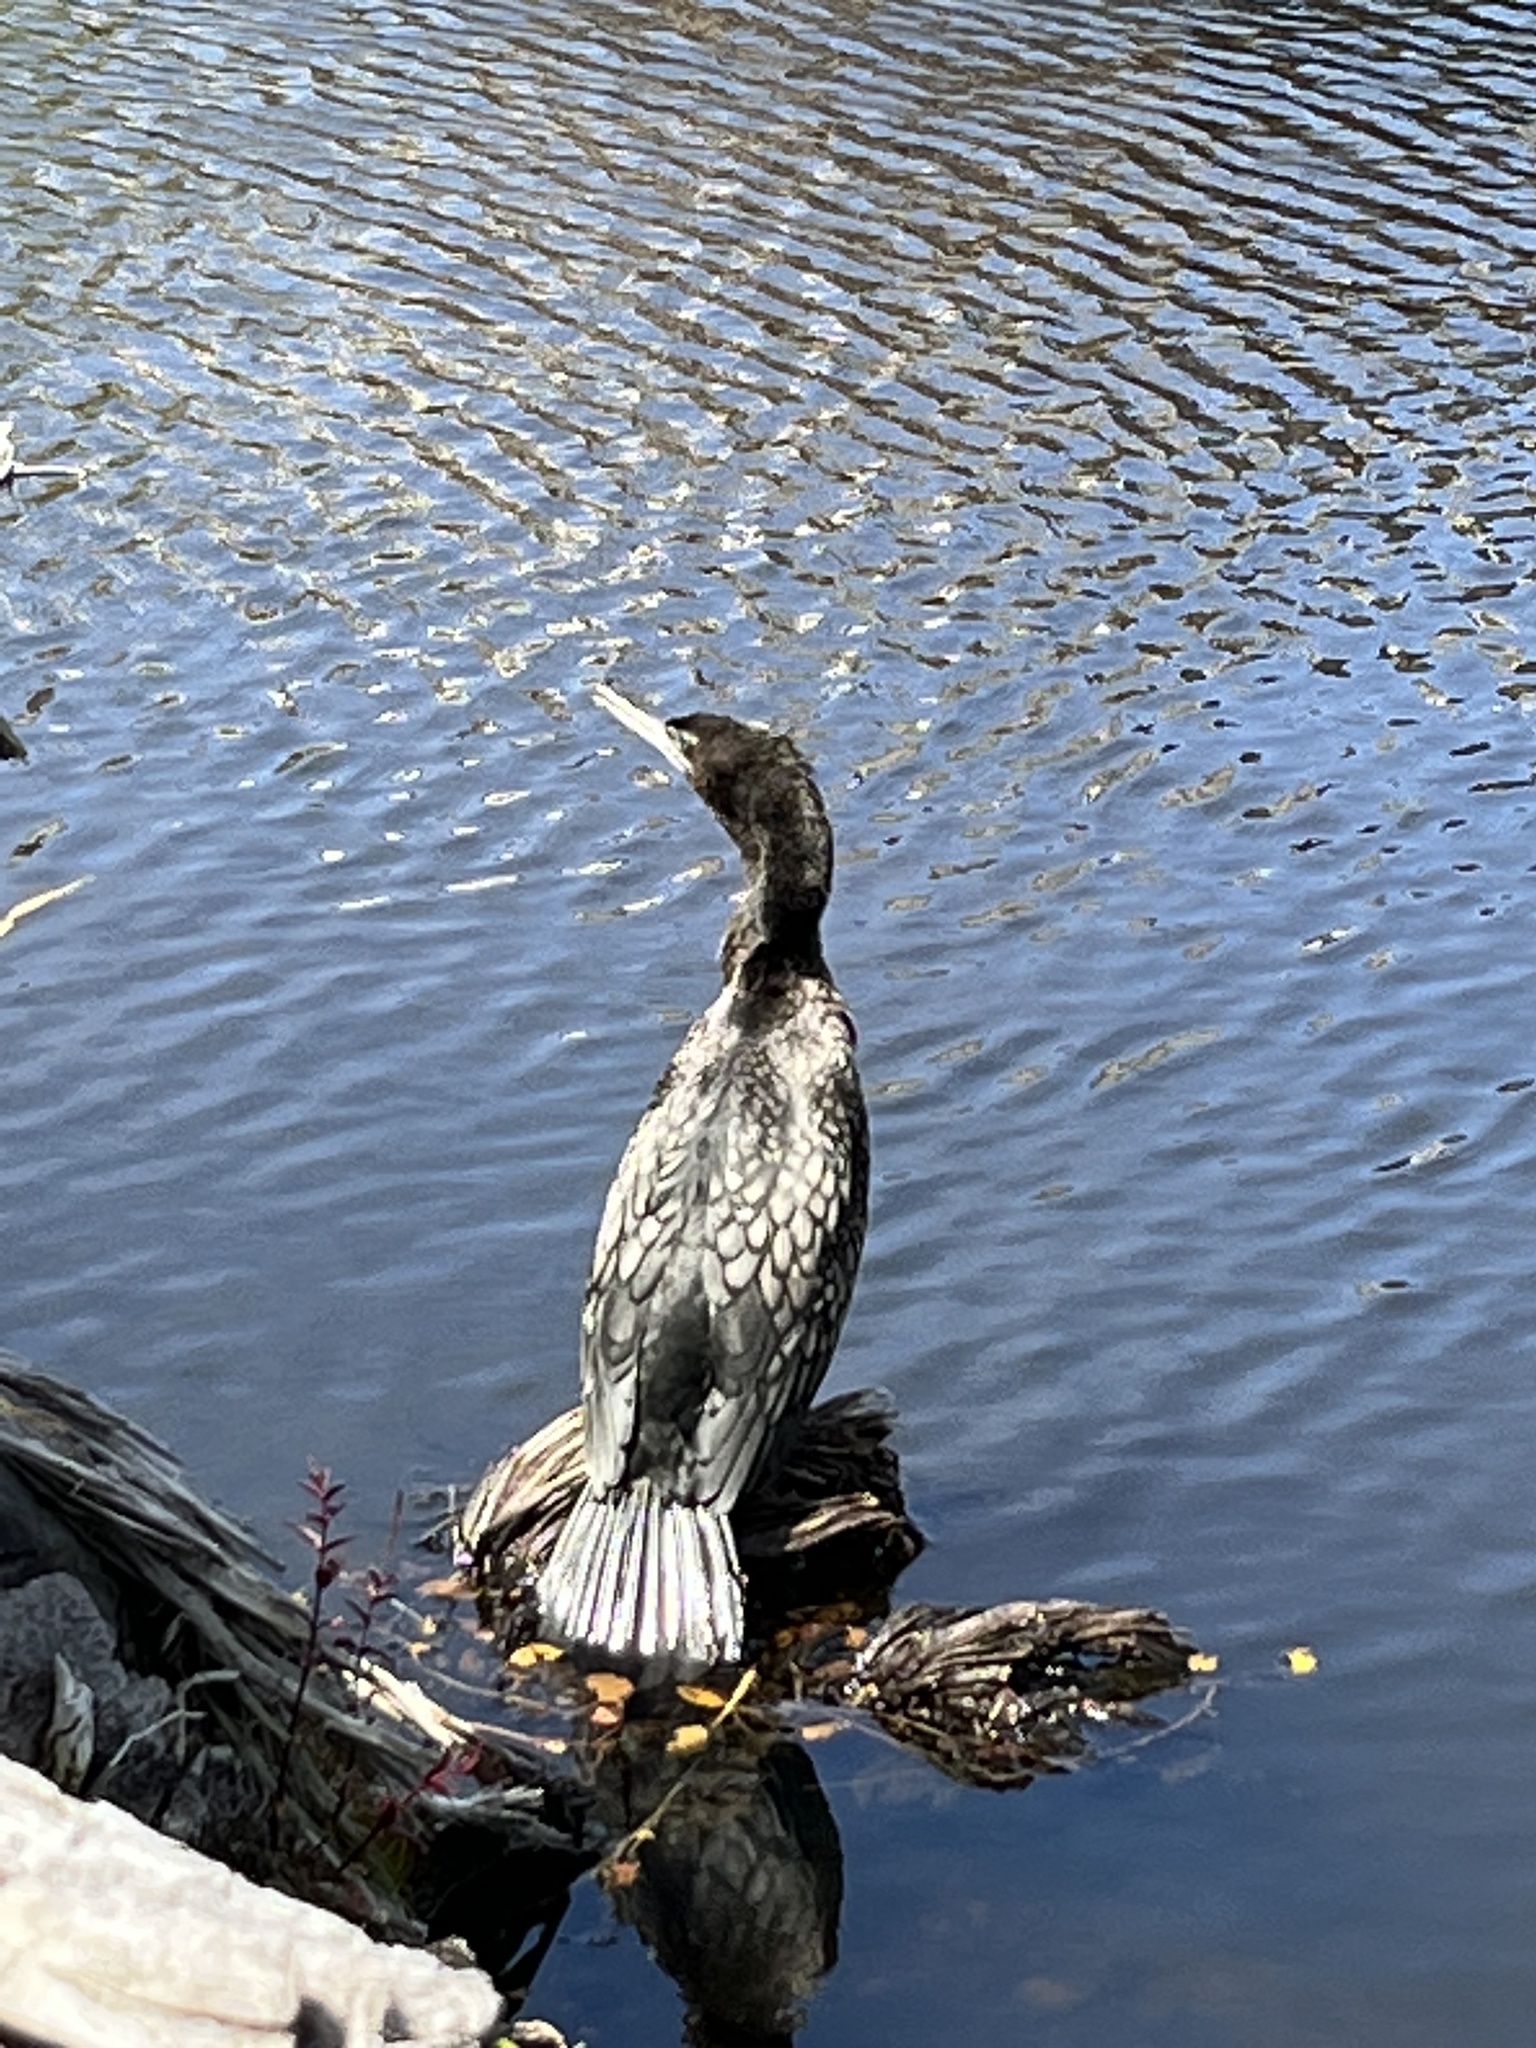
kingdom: Animalia
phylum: Chordata
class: Aves
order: Suliformes
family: Phalacrocoracidae
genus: Phalacrocorax
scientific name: Phalacrocorax sulcirostris
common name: Little black cormorant
